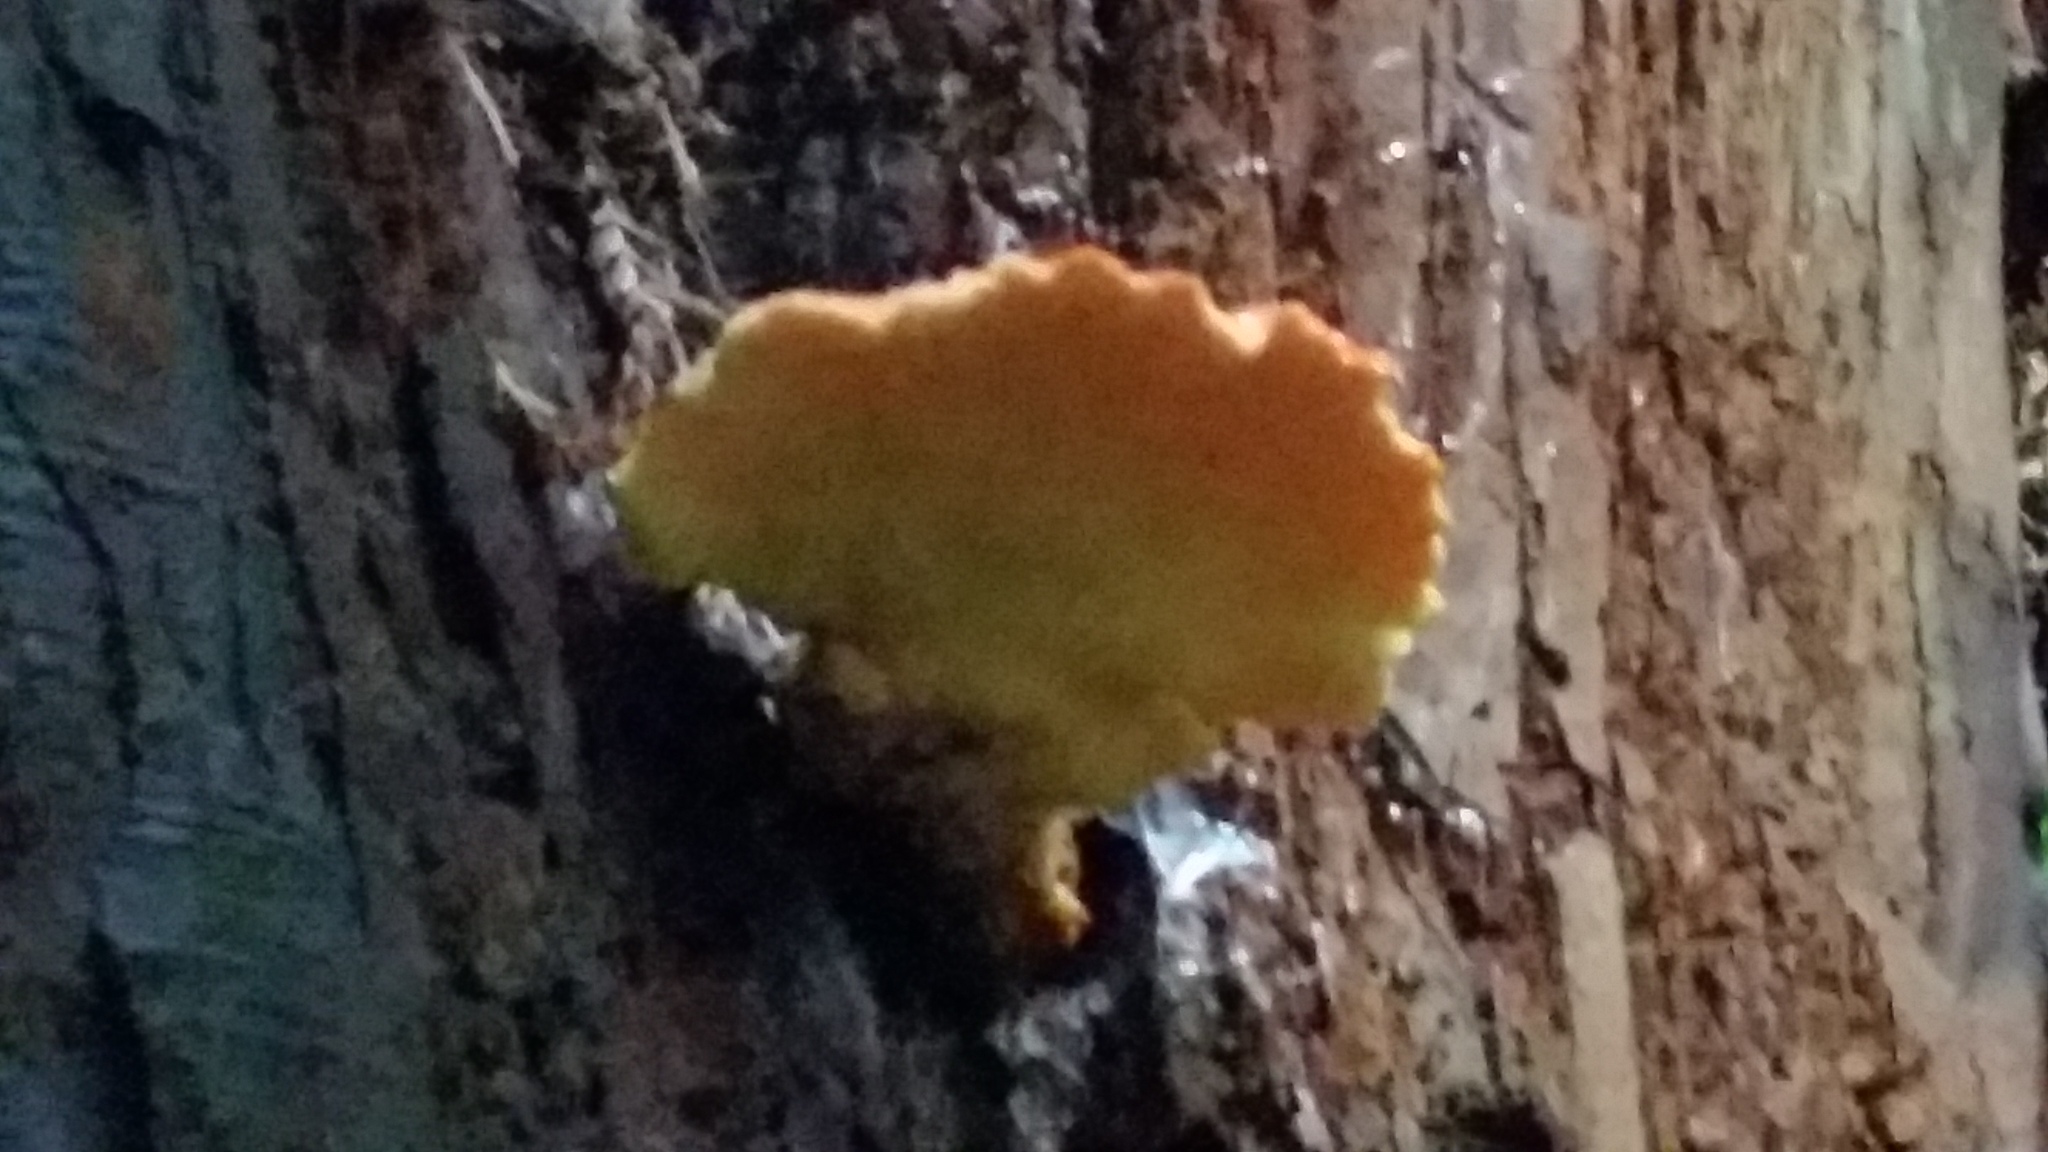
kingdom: Fungi
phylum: Basidiomycota
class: Agaricomycetes
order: Polyporales
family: Laetiporaceae
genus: Laetiporus
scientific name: Laetiporus conifericola
